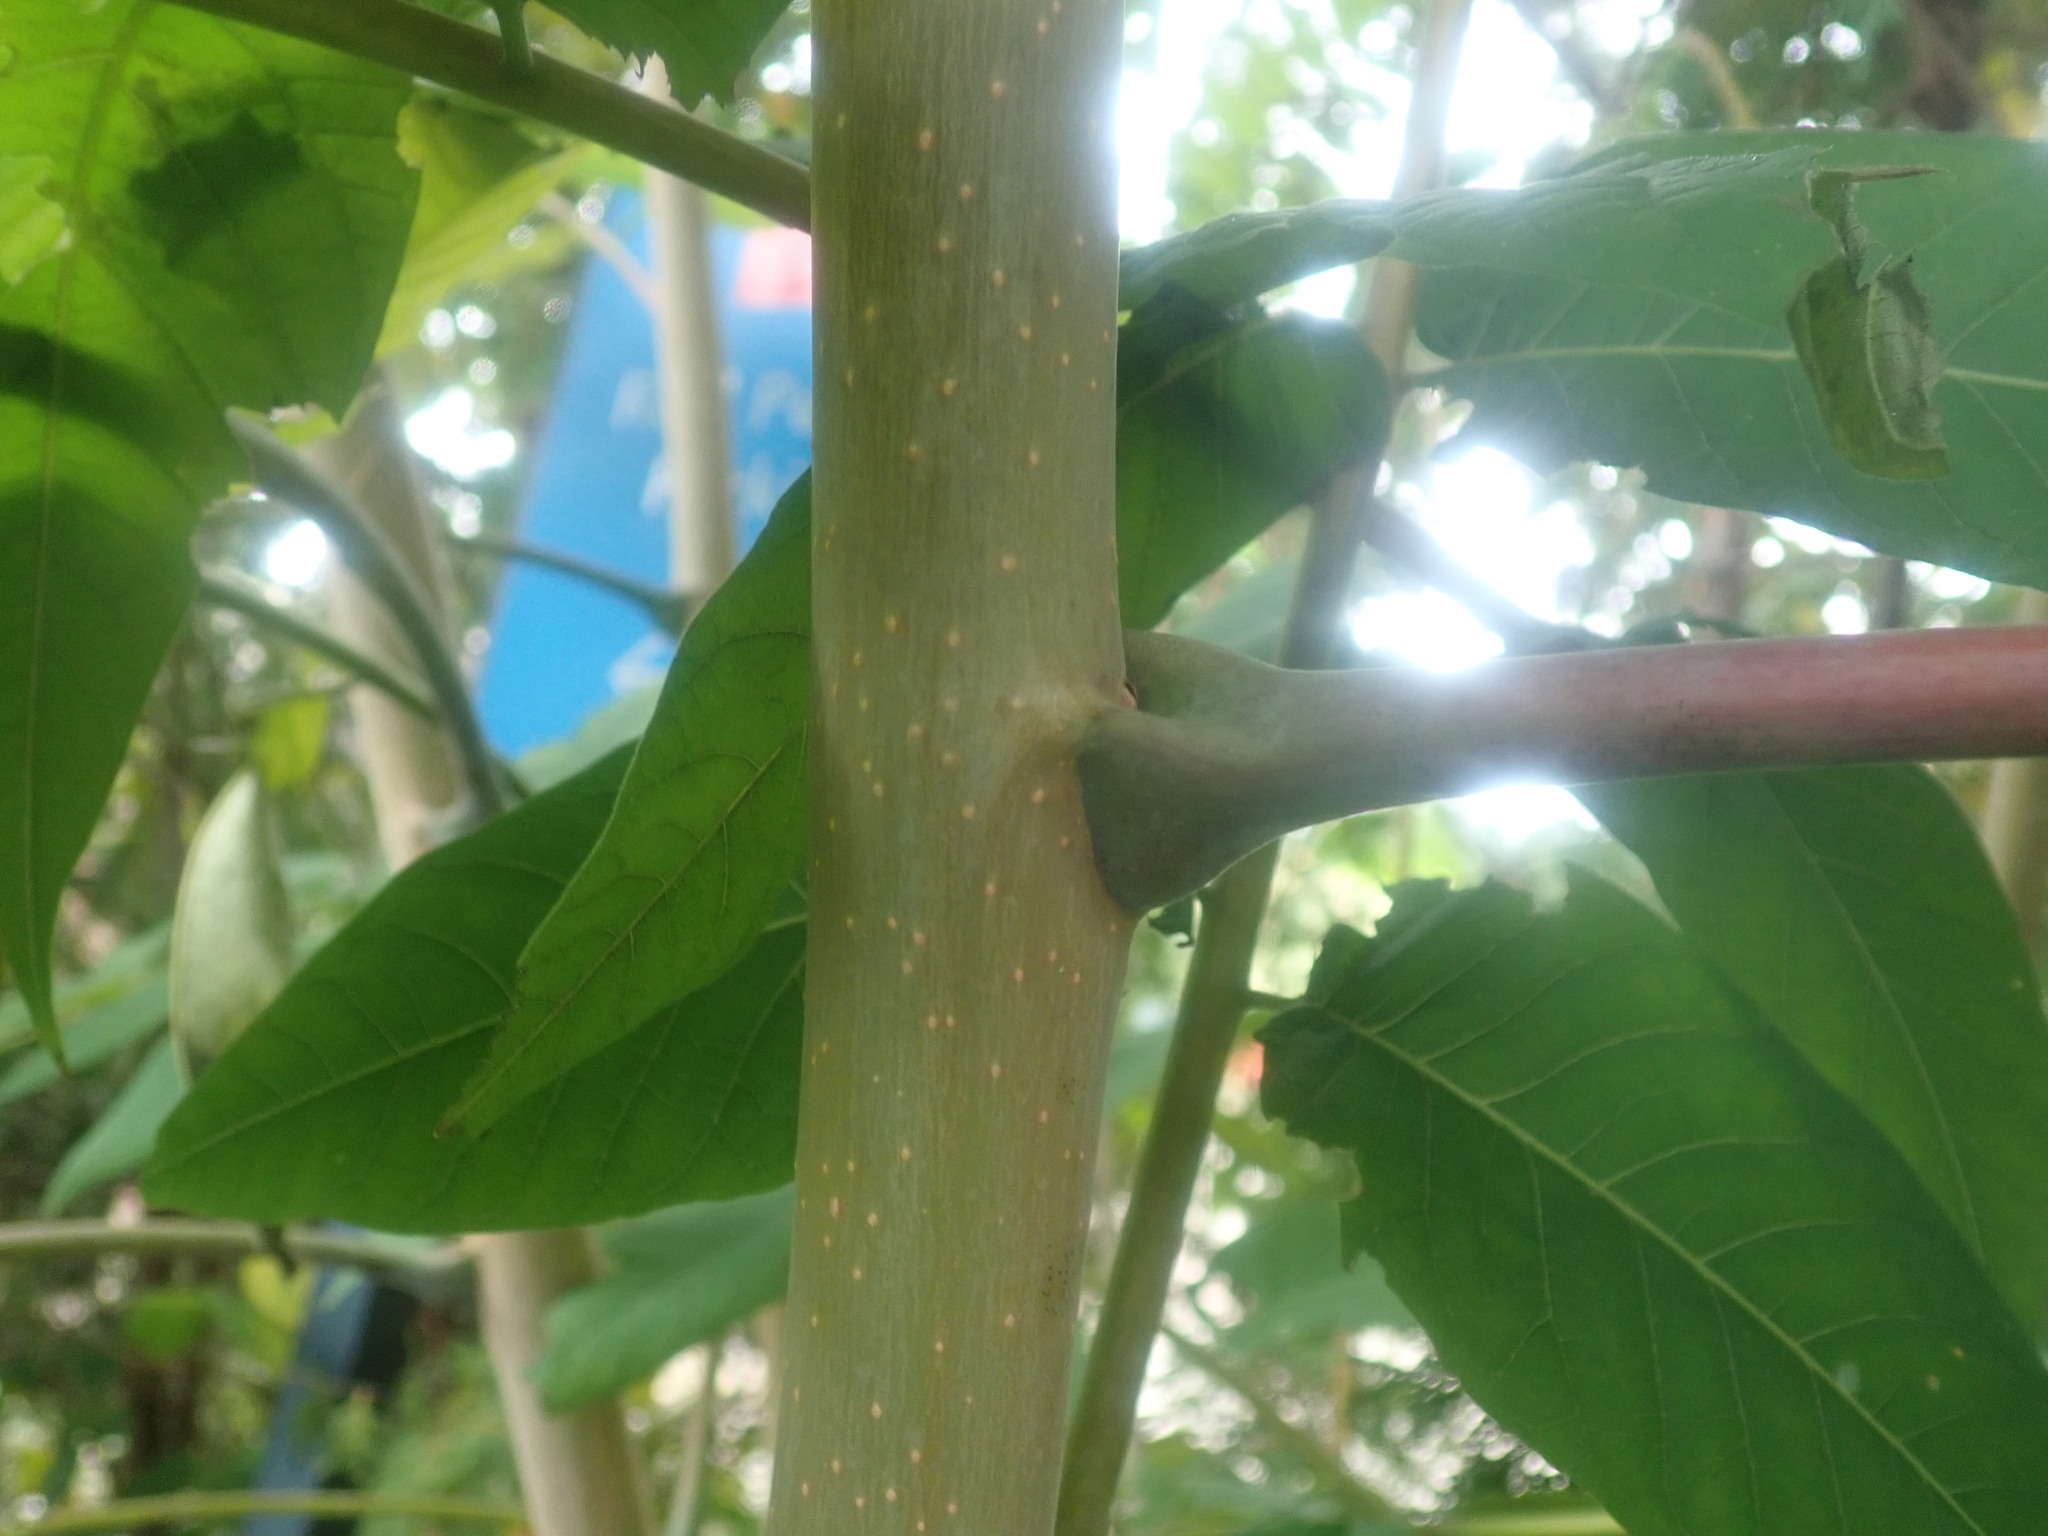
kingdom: Plantae
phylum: Tracheophyta
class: Magnoliopsida
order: Sapindales
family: Simaroubaceae
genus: Ailanthus
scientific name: Ailanthus altissima
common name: Tree-of-heaven
